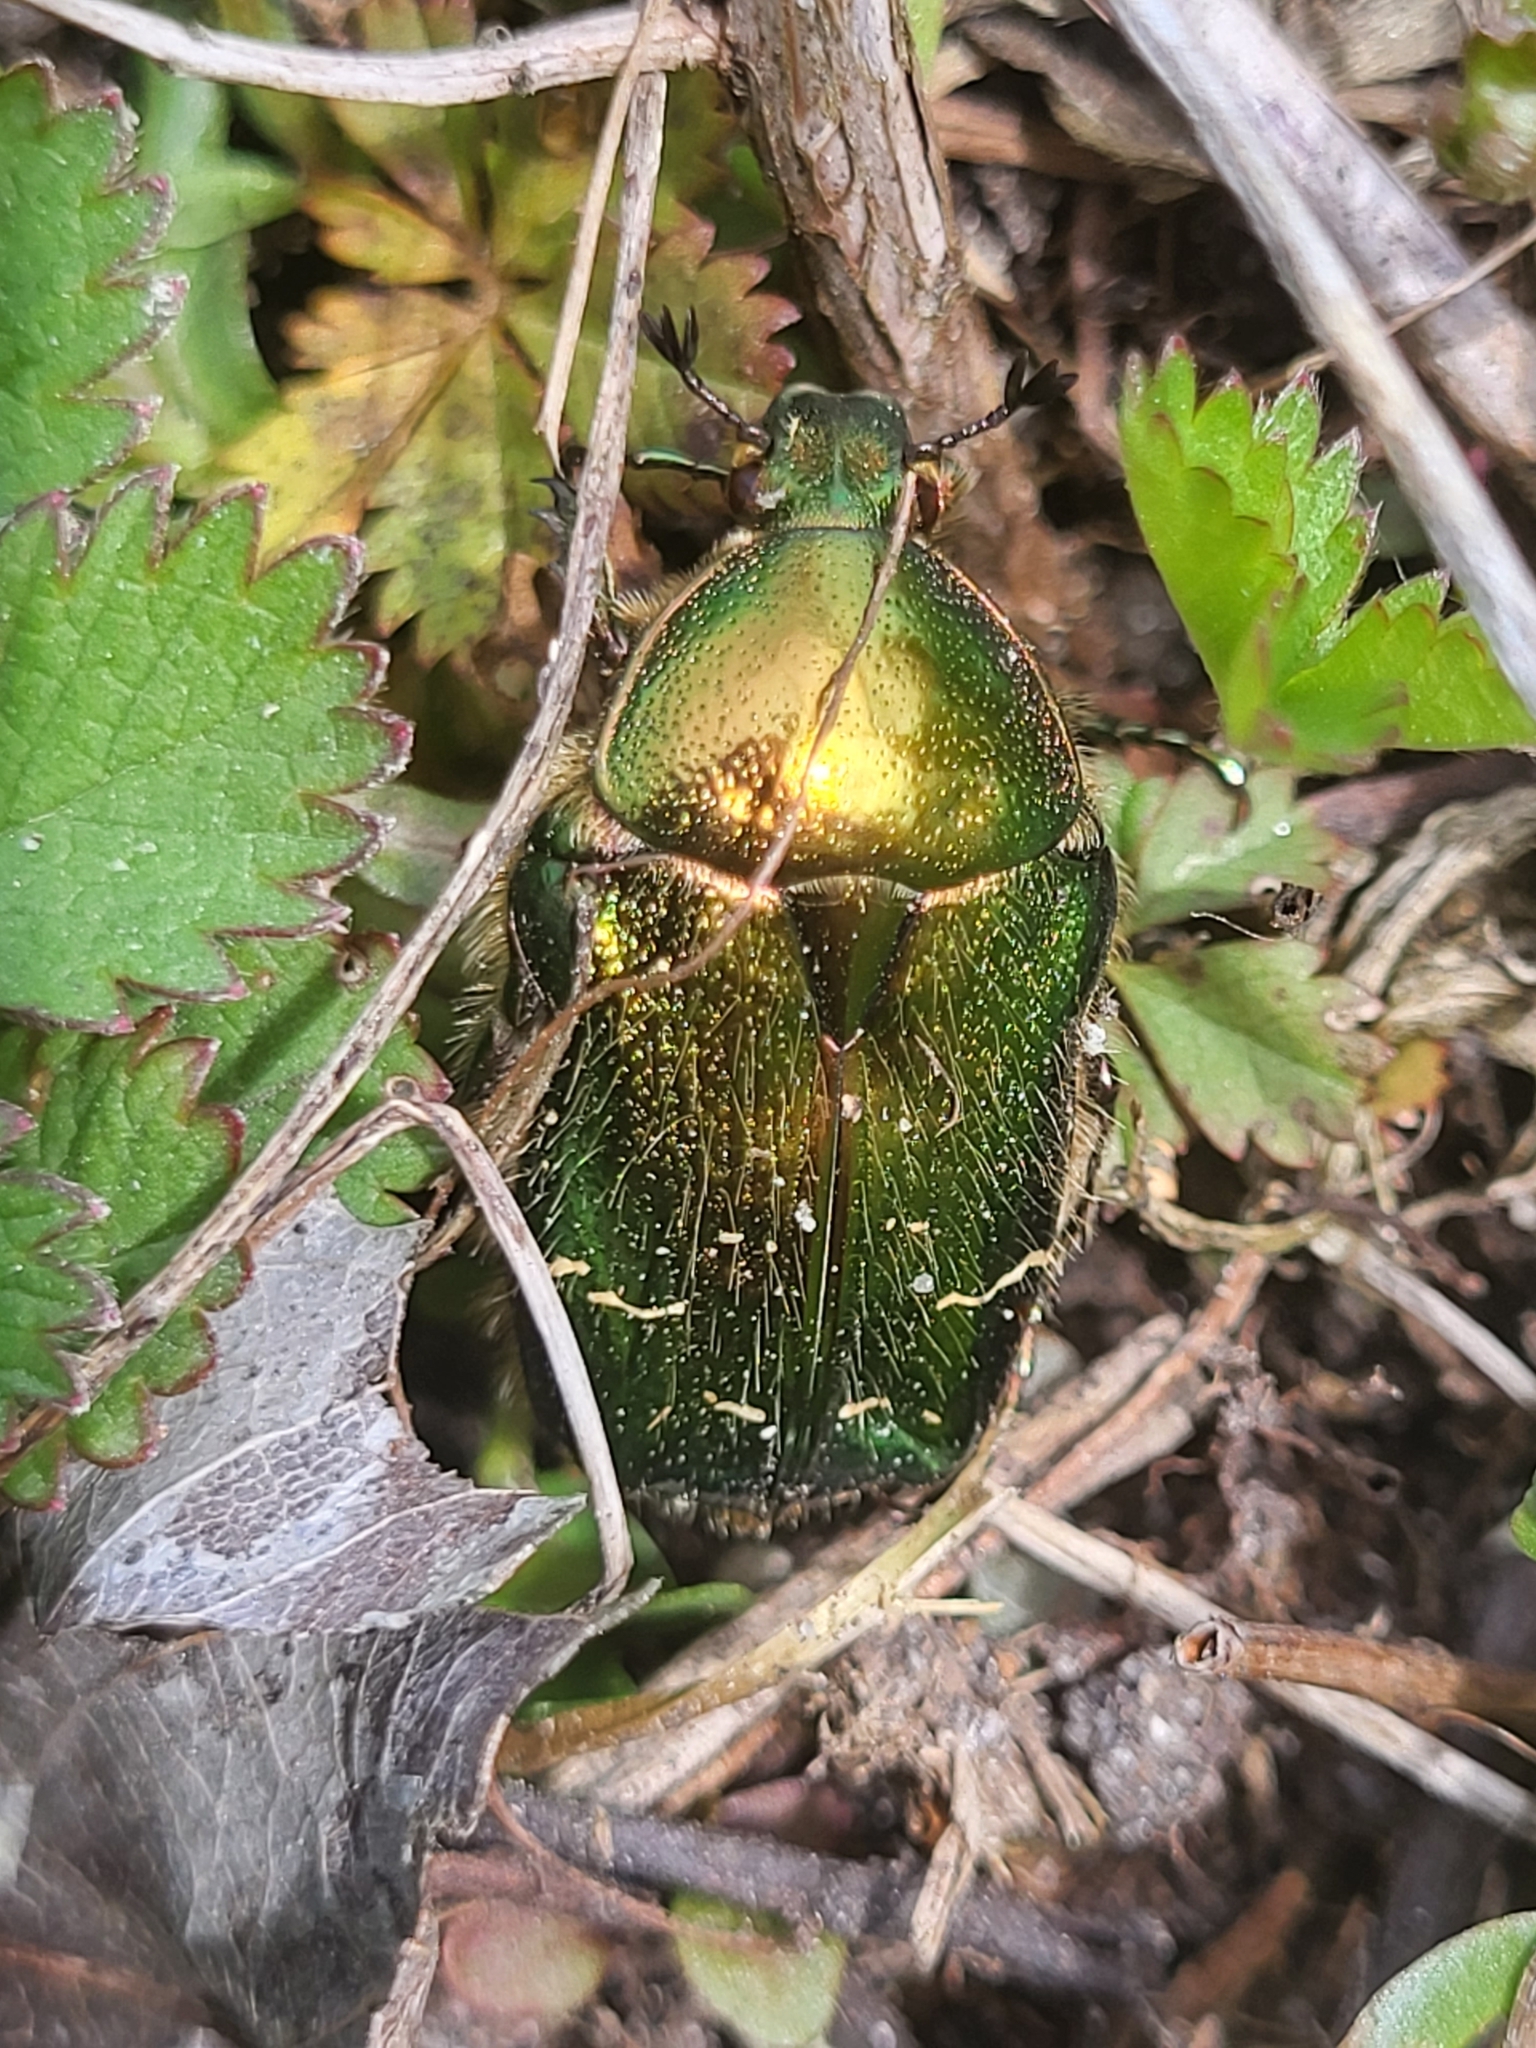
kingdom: Animalia
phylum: Arthropoda
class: Insecta
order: Coleoptera
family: Scarabaeidae
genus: Cetonia
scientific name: Cetonia aurata
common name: Rose chafer
